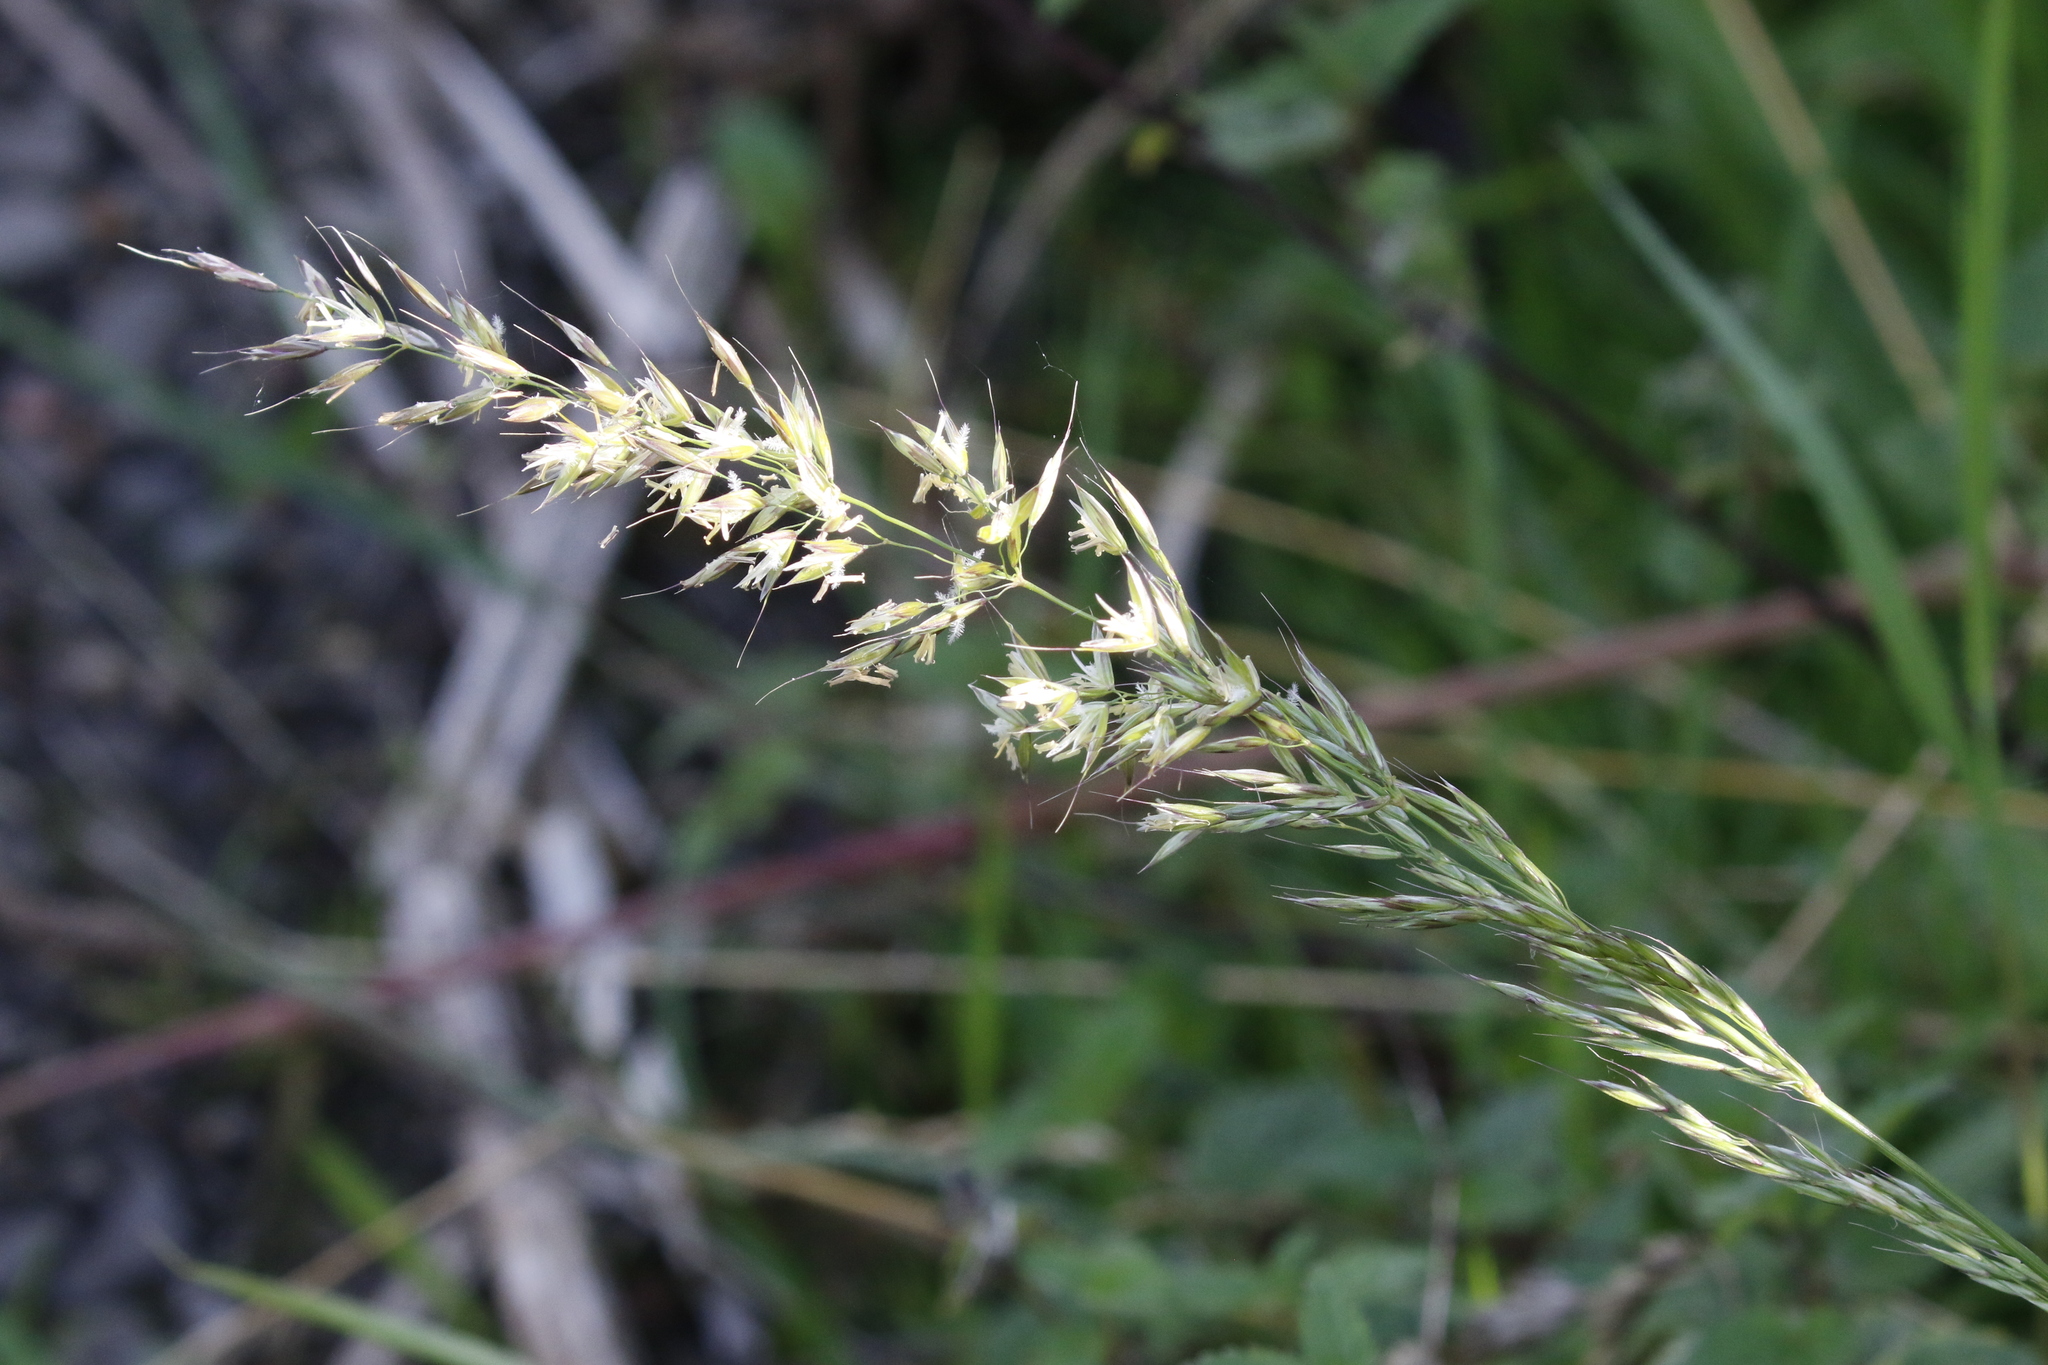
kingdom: Plantae
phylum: Tracheophyta
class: Liliopsida
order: Poales
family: Poaceae
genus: Arrhenatherum
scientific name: Arrhenatherum elatius
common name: Tall oatgrass
